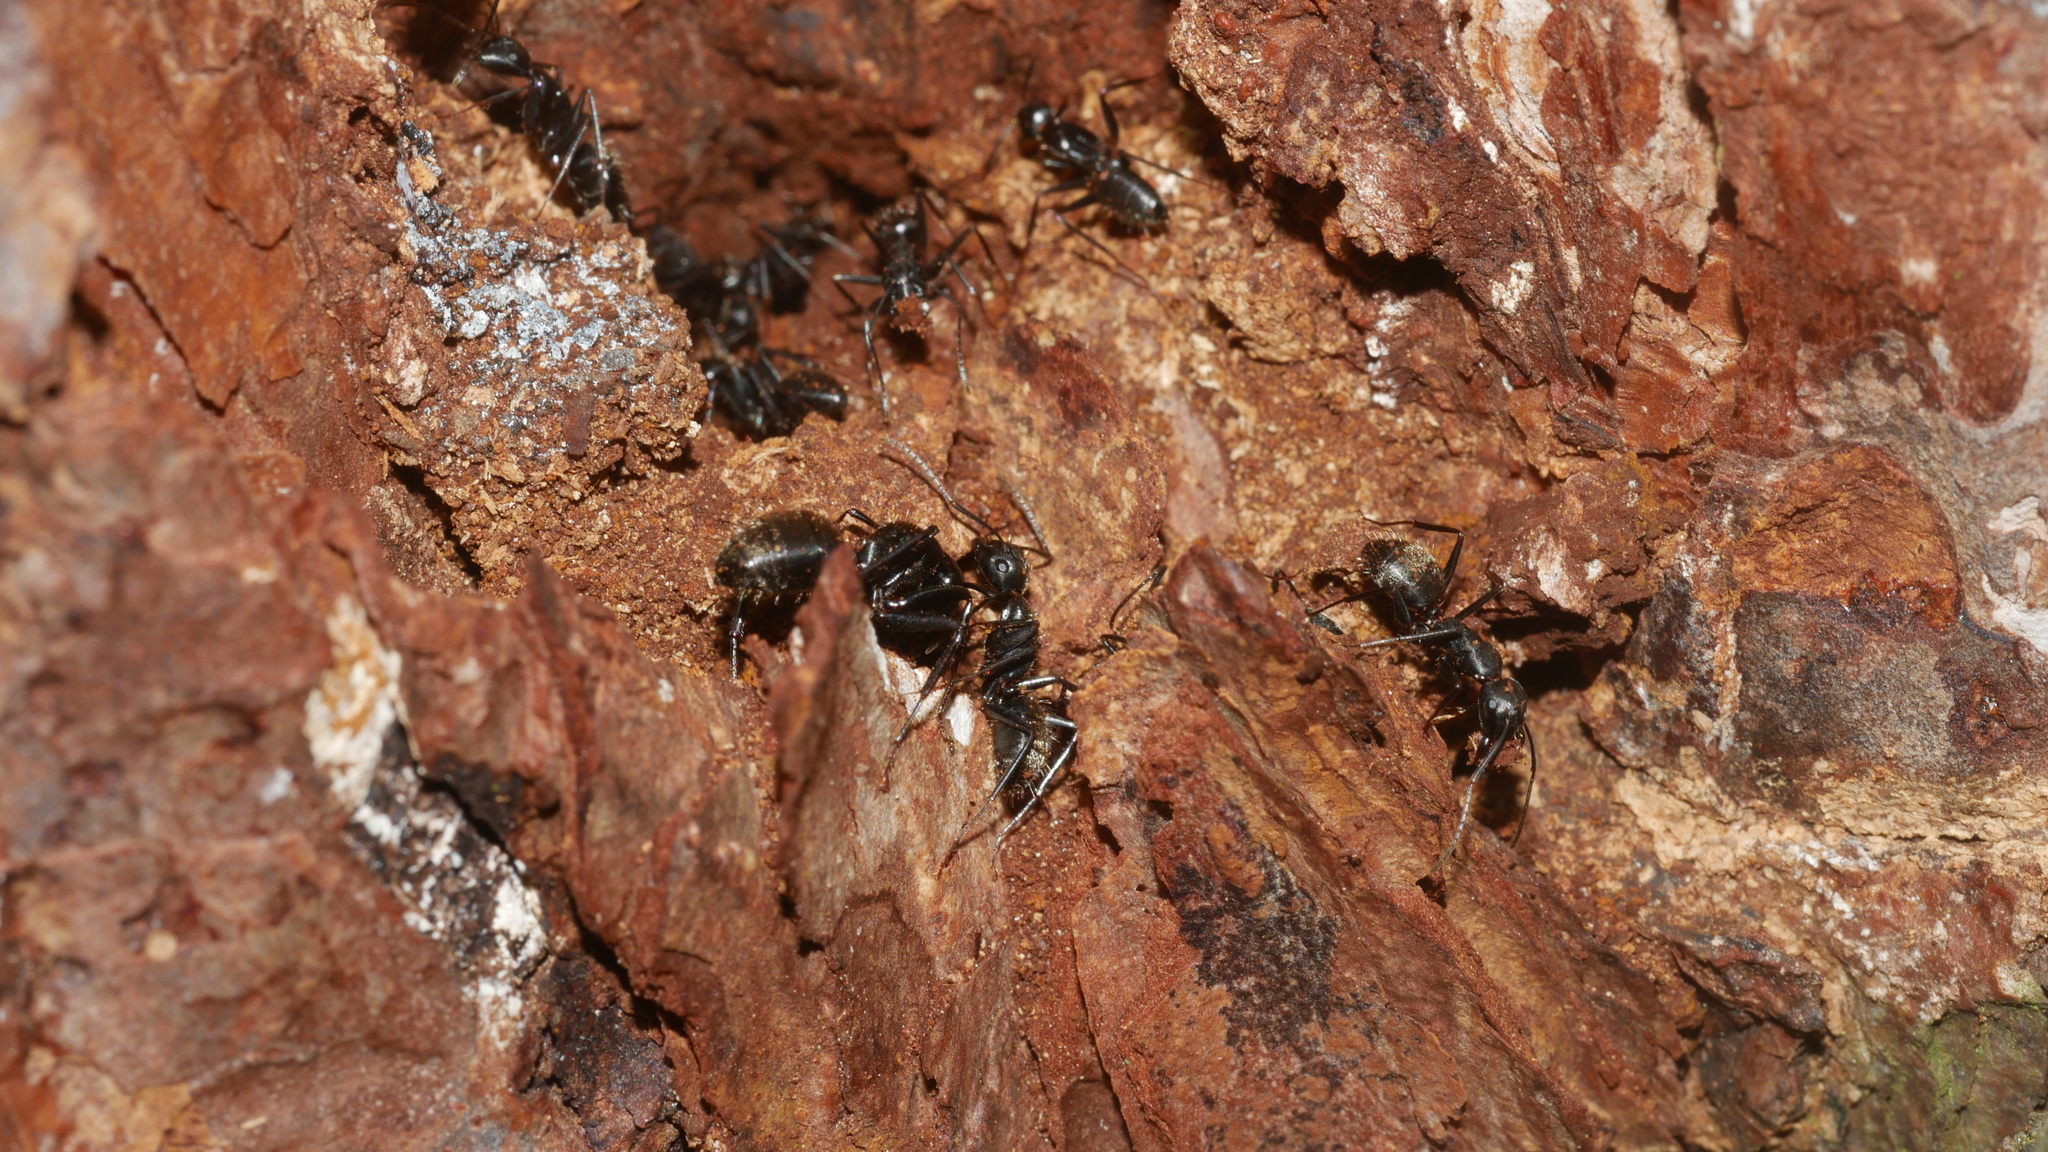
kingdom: Animalia
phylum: Arthropoda
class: Insecta
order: Hymenoptera
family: Formicidae
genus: Camponotus
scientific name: Camponotus pennsylvanicus
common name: Black carpenter ant
